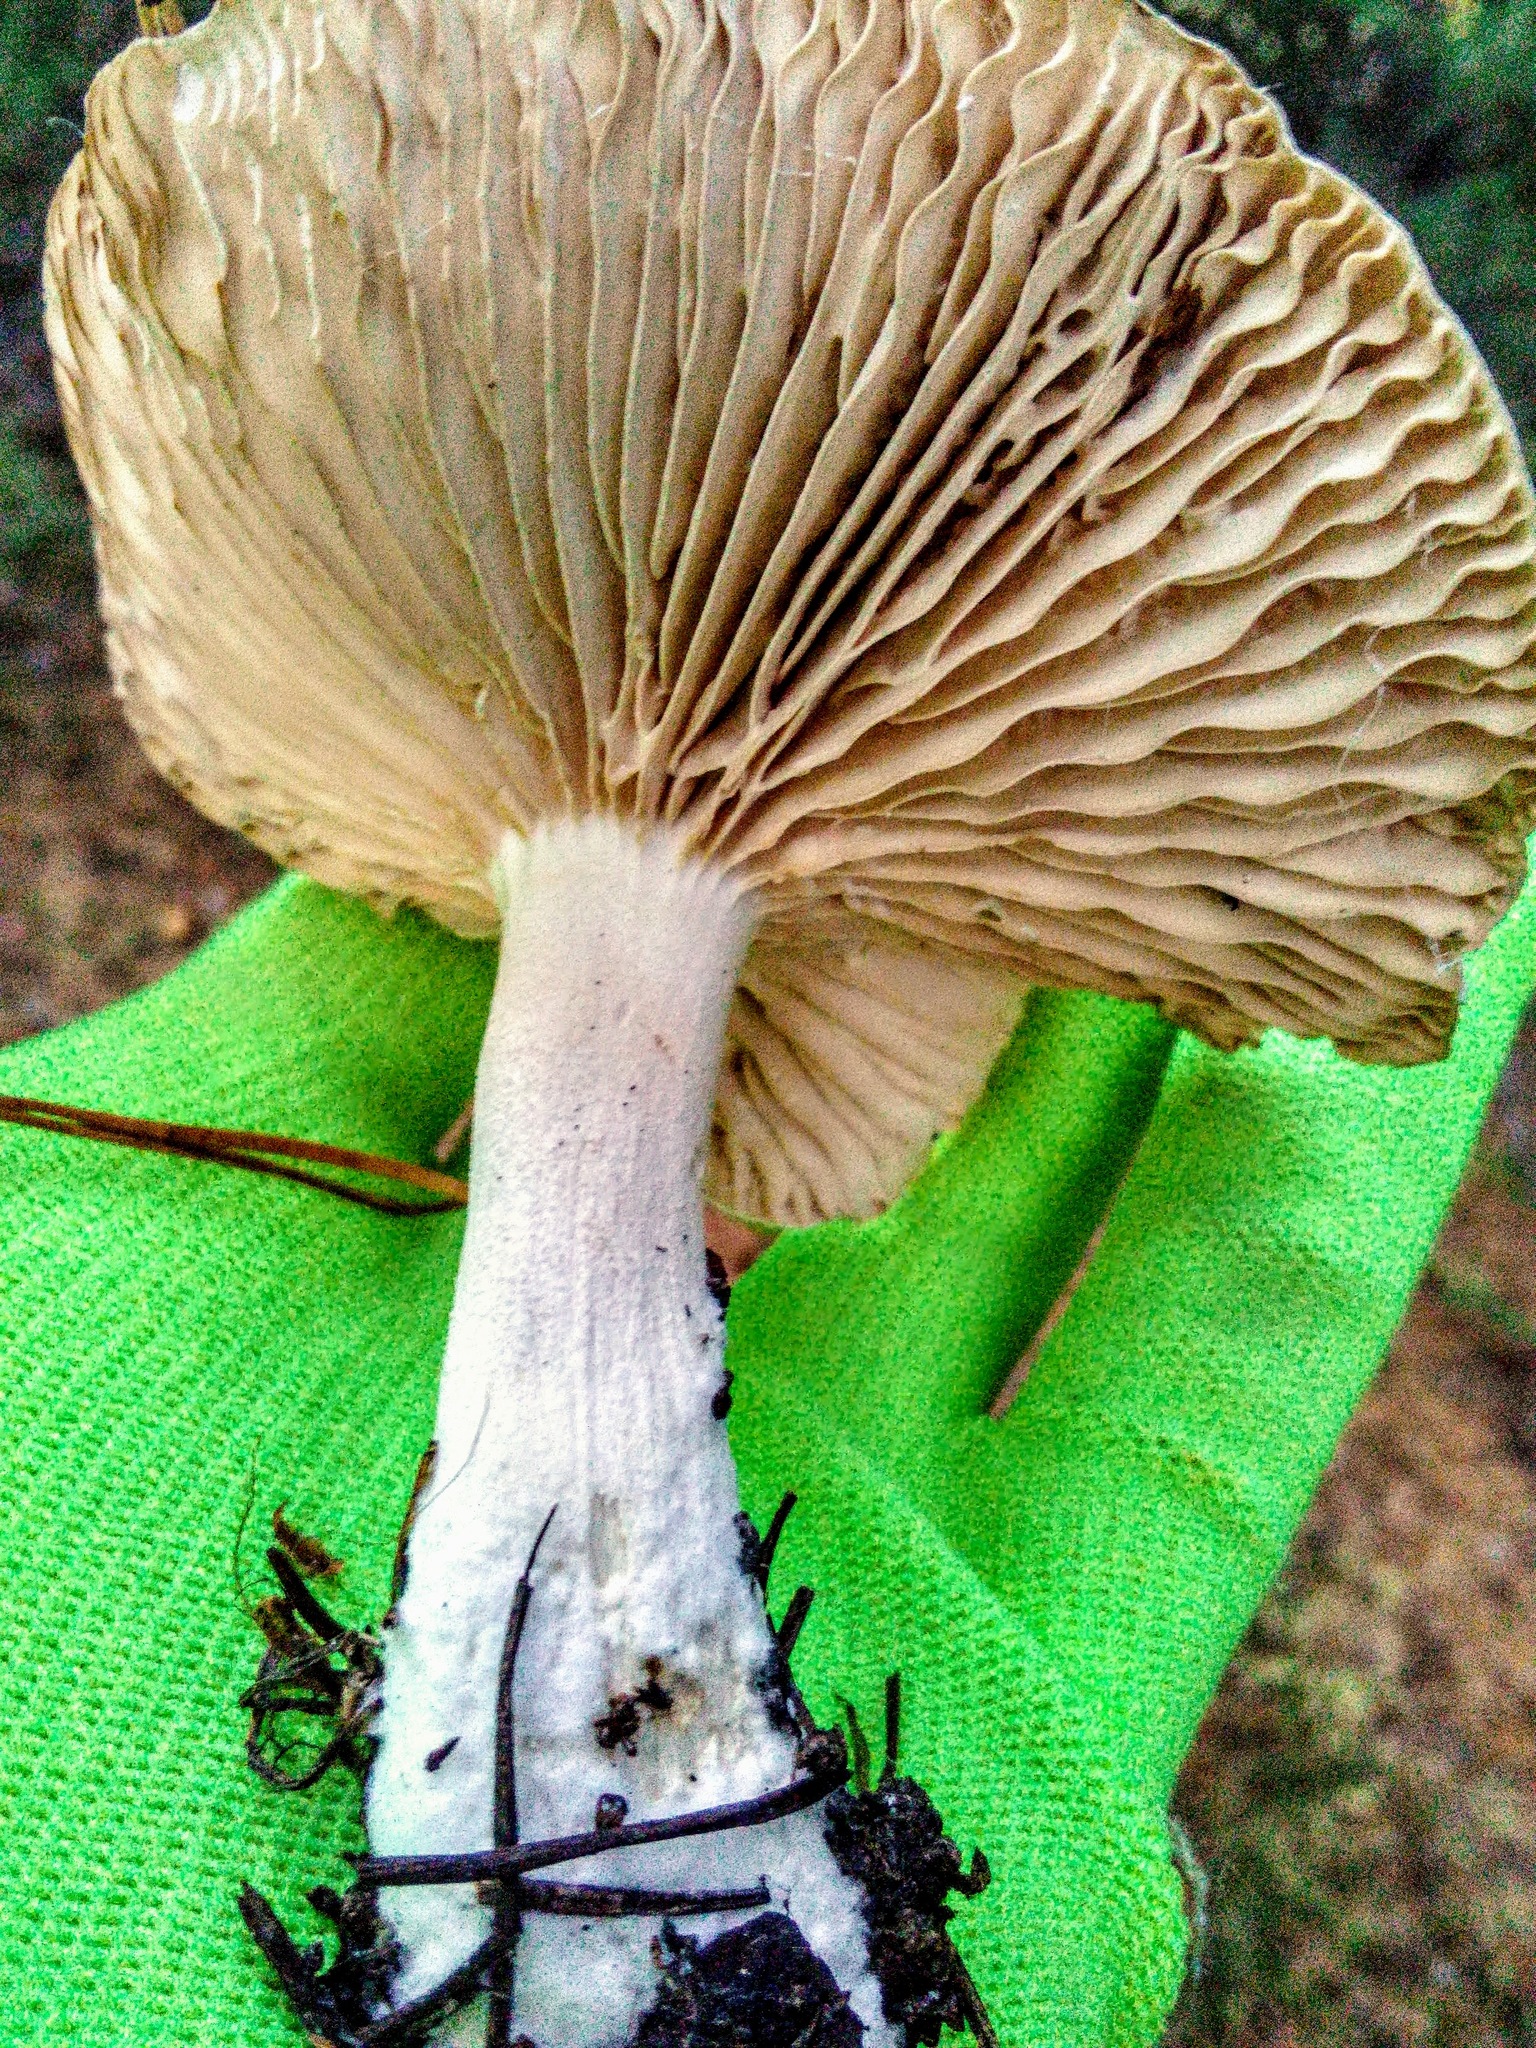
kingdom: Fungi
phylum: Basidiomycota
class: Agaricomycetes
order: Agaricales
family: Tricholomataceae
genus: Clitocybe
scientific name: Clitocybe nebularis
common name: Clouded agaric
